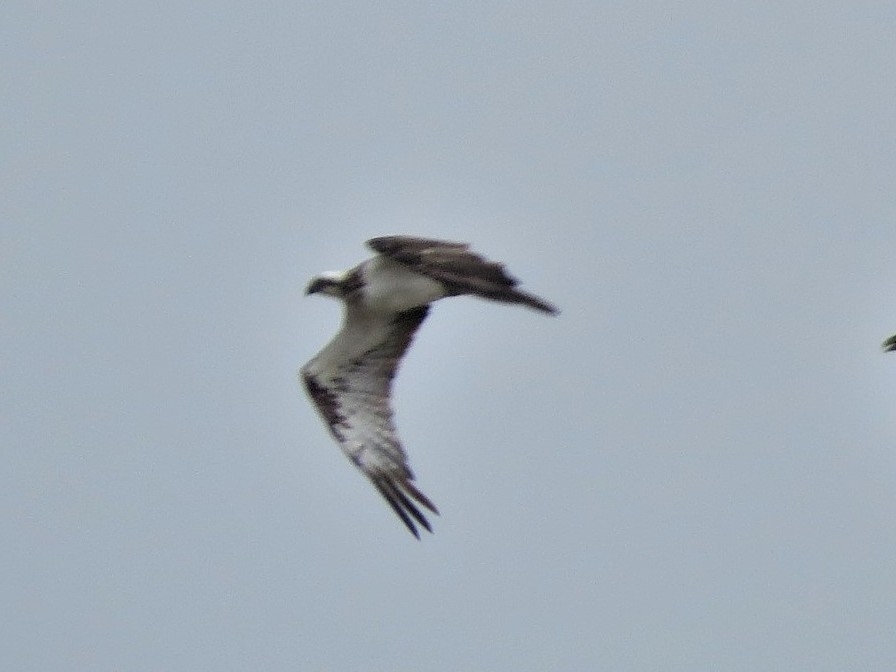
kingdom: Animalia
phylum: Chordata
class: Aves
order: Accipitriformes
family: Pandionidae
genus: Pandion
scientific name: Pandion haliaetus
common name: Osprey
